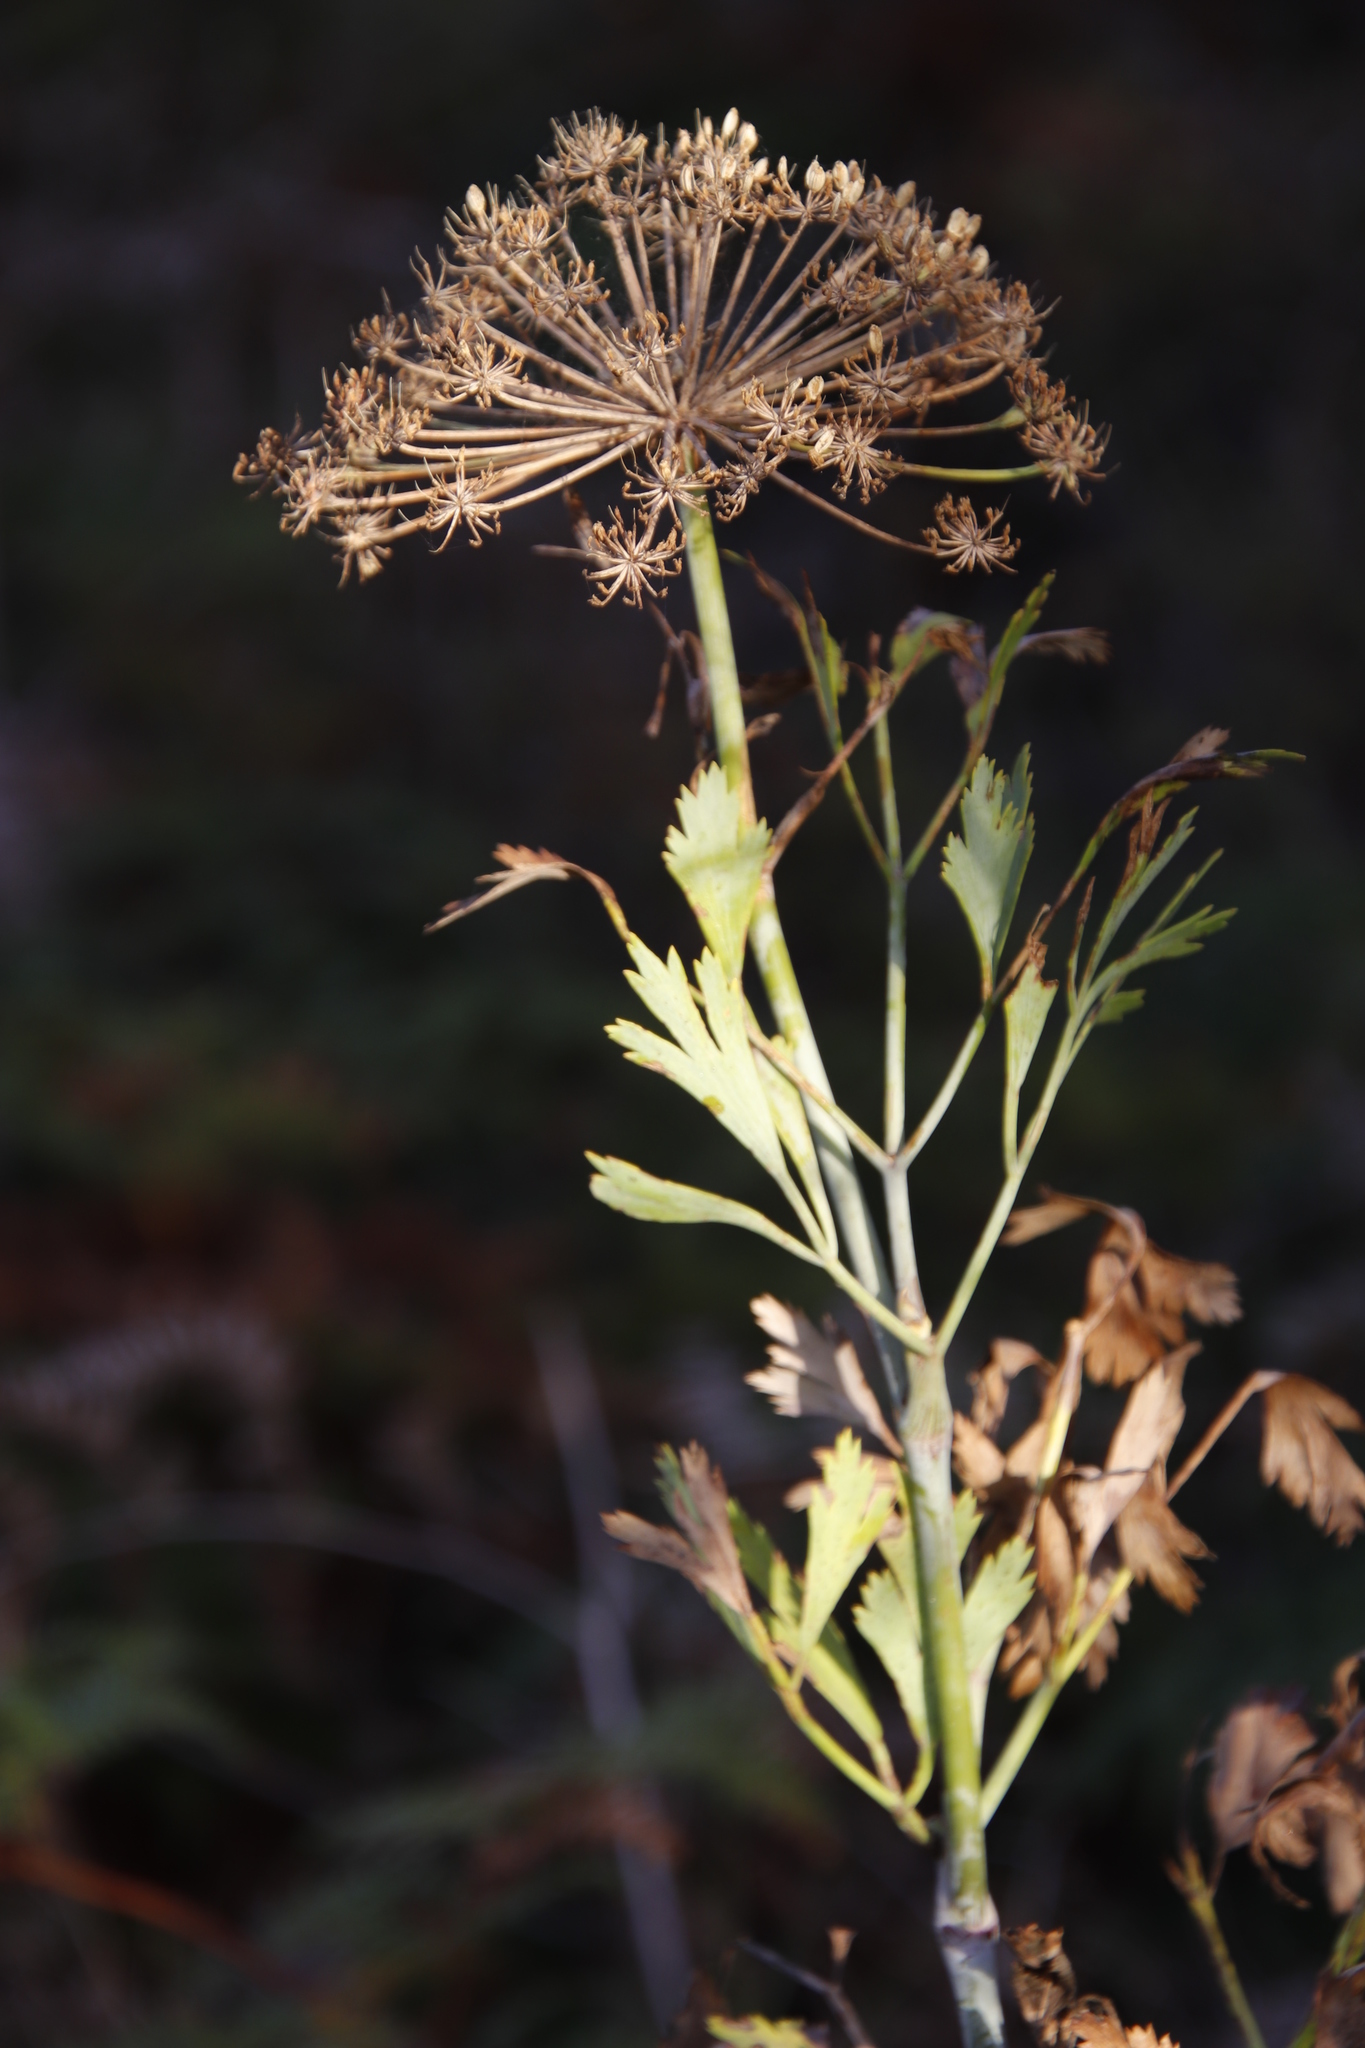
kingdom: Plantae
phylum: Tracheophyta
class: Magnoliopsida
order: Apiales
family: Apiaceae
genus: Notobubon
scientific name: Notobubon galbanum
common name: Blisterbush
